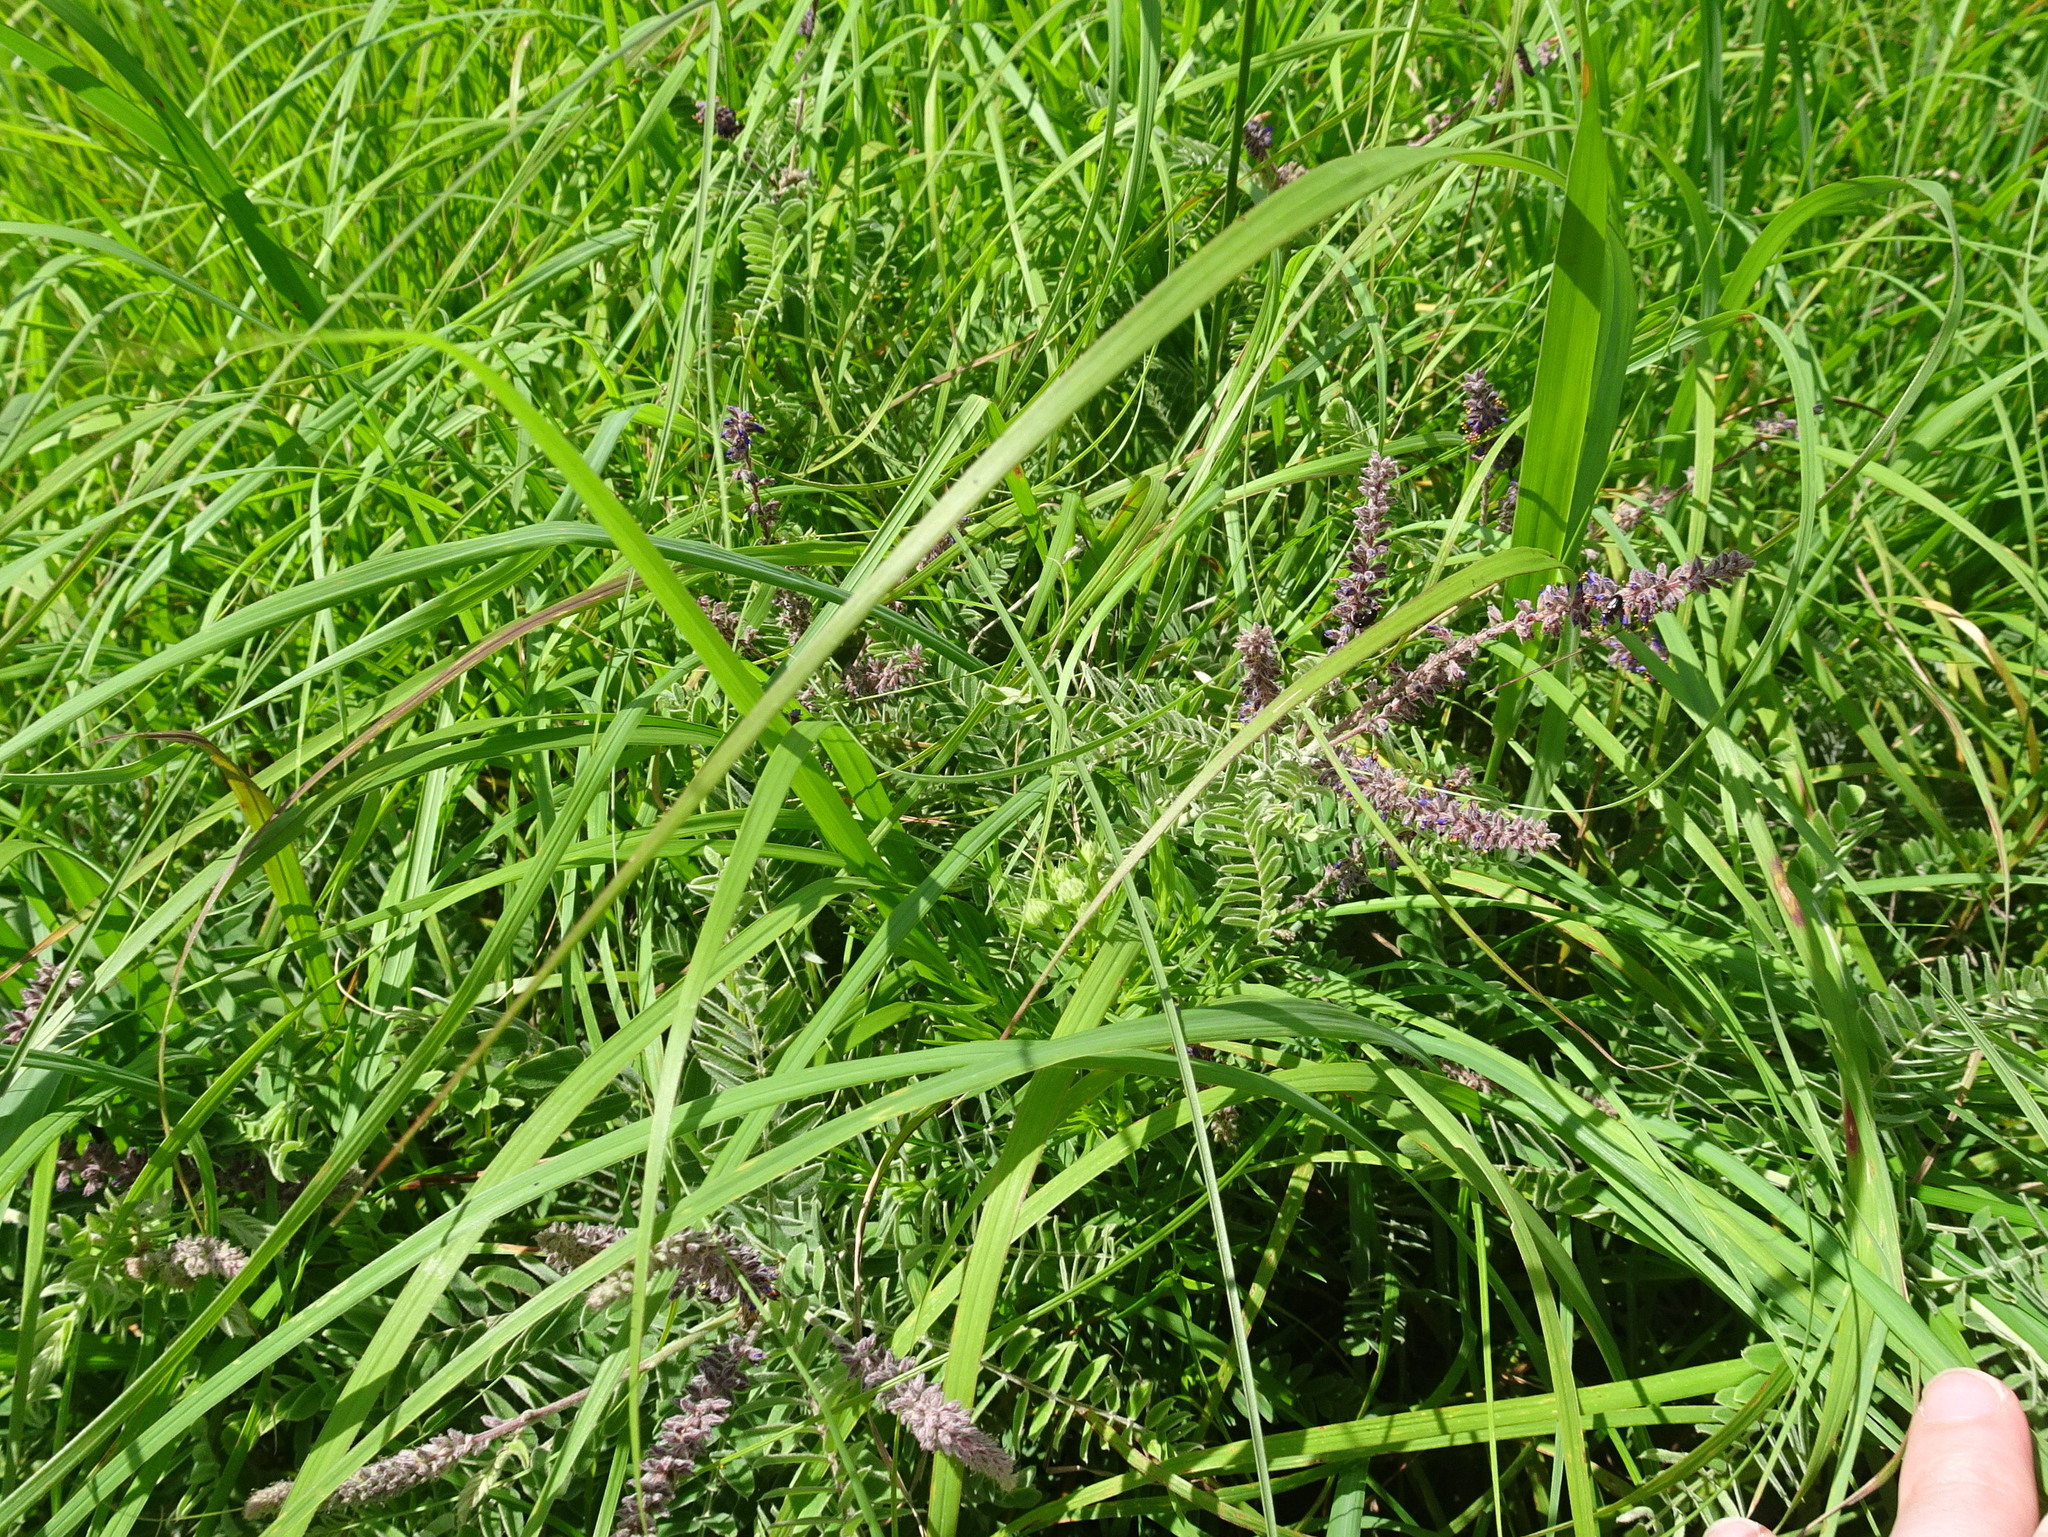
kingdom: Plantae
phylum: Tracheophyta
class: Magnoliopsida
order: Fabales
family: Fabaceae
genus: Amorpha
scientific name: Amorpha canescens
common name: Leadplant
